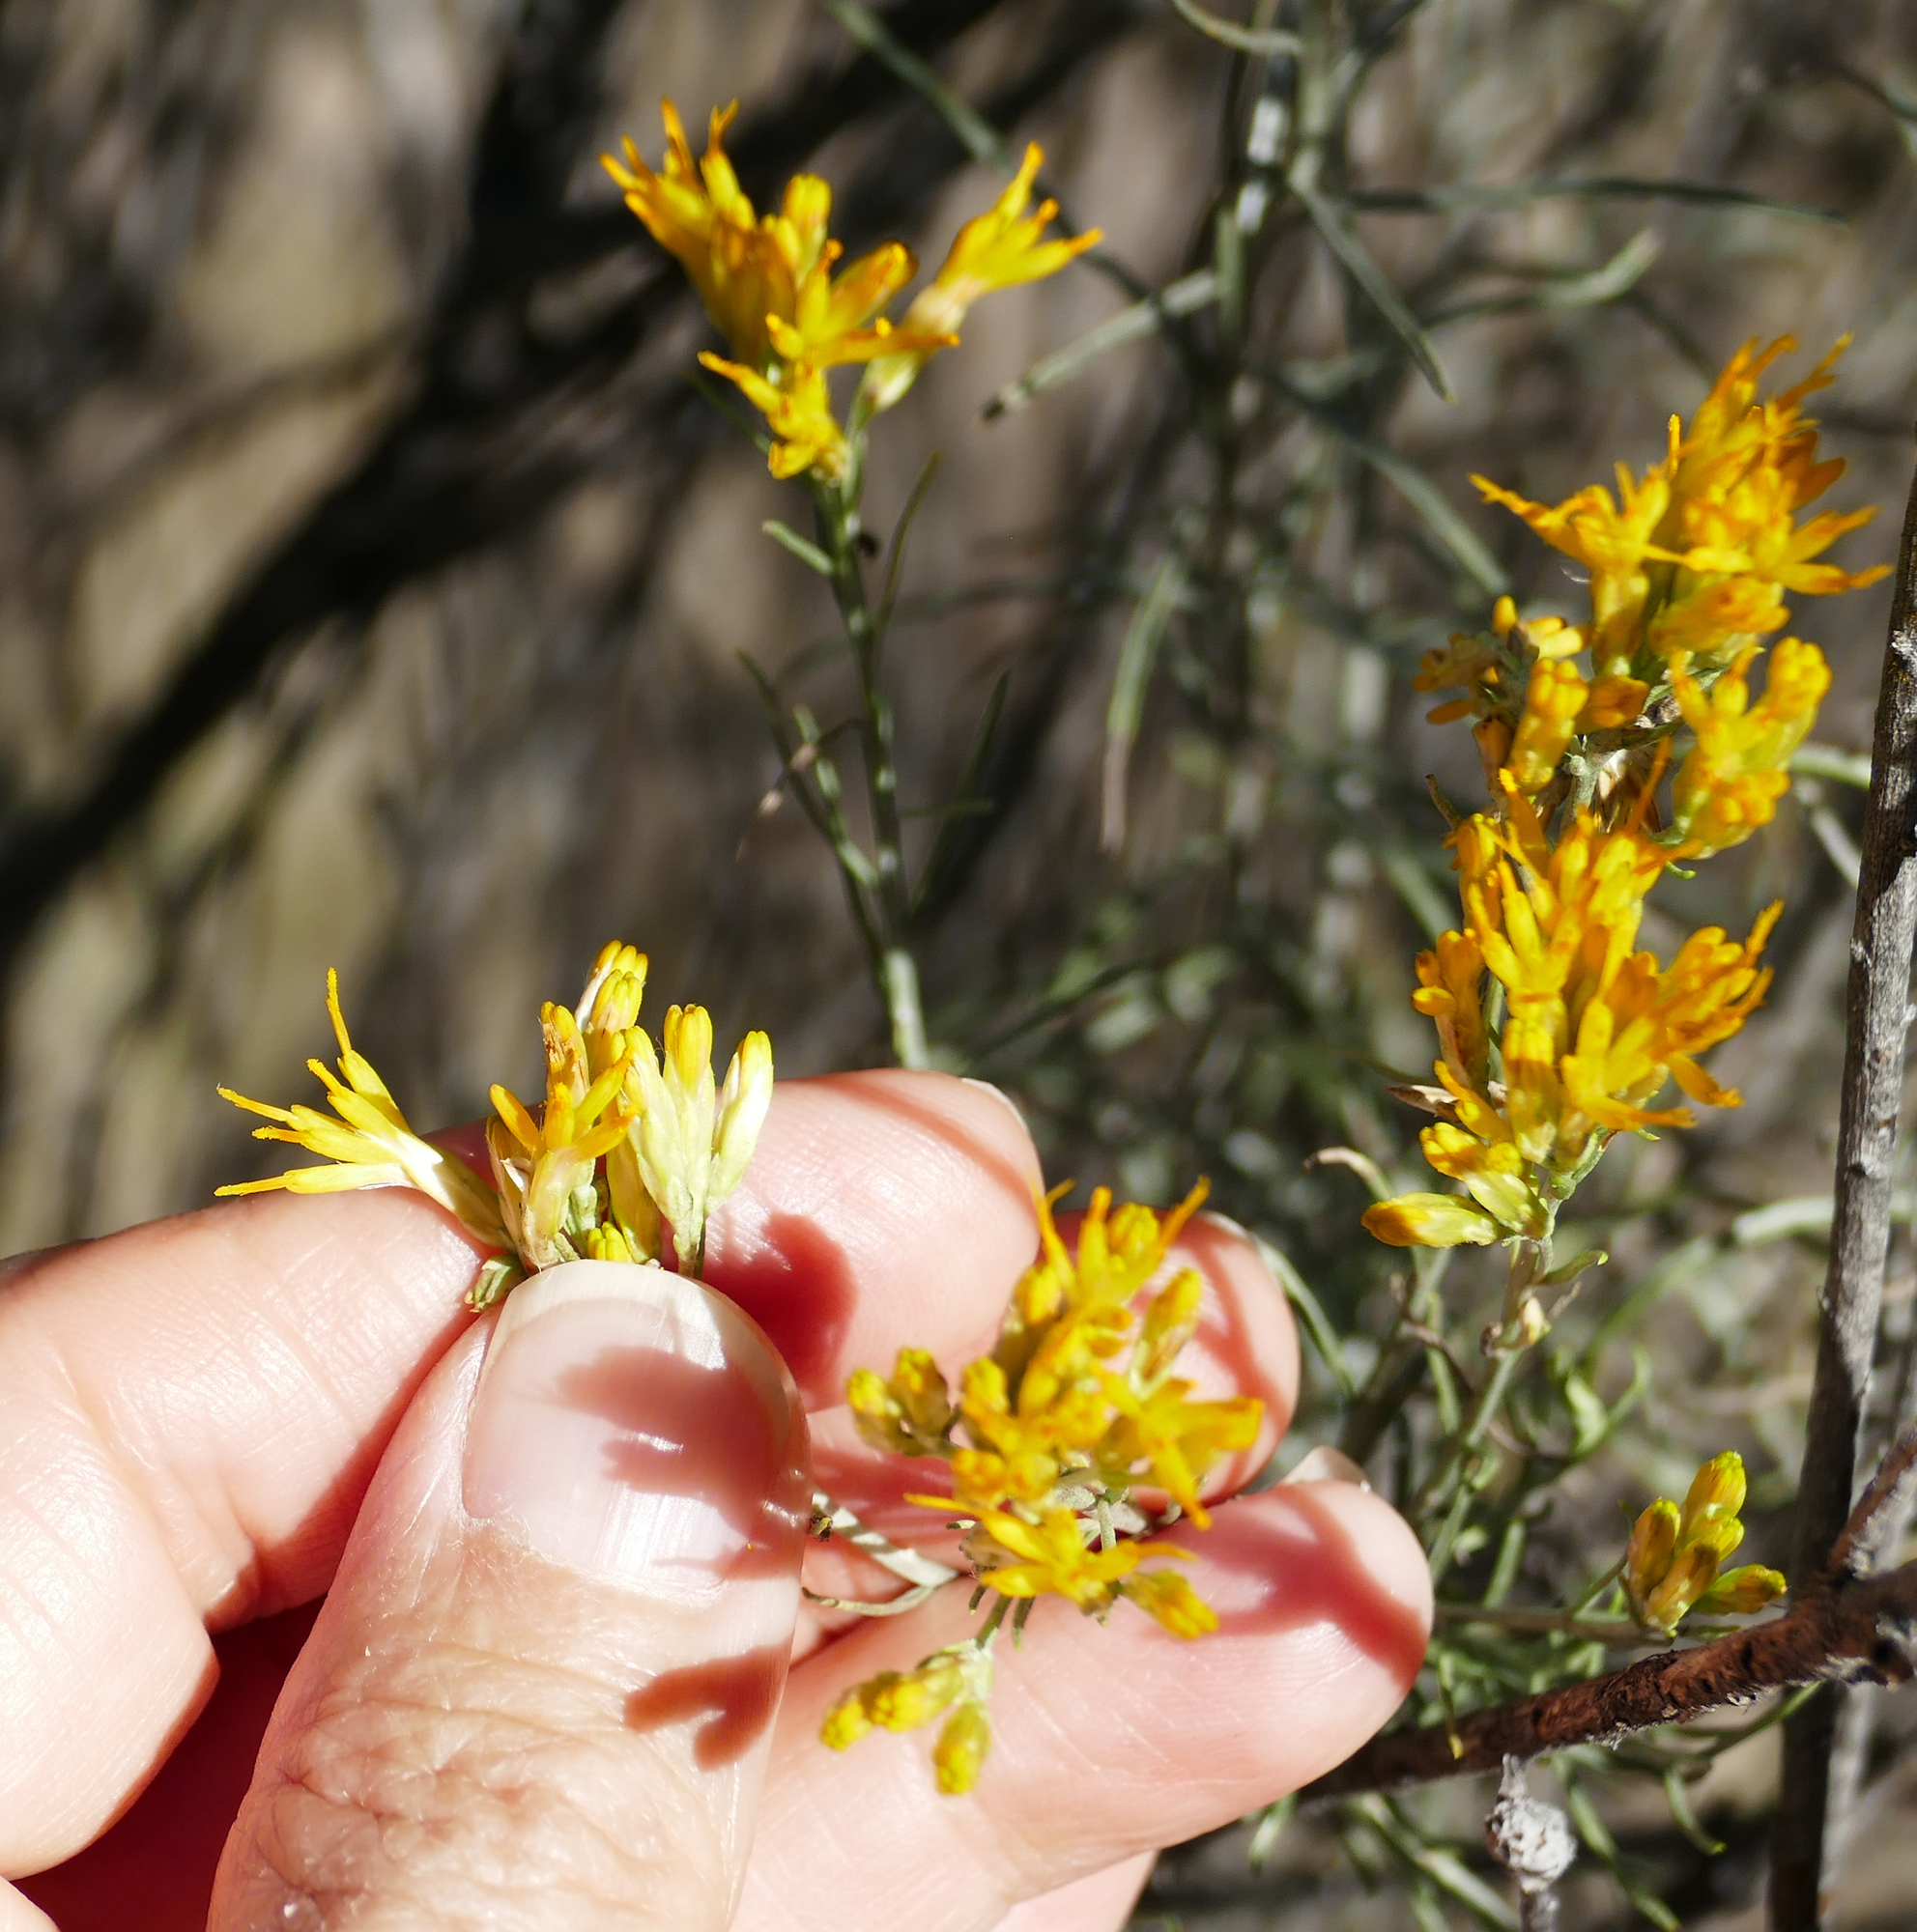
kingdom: Plantae
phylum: Tracheophyta
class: Magnoliopsida
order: Asterales
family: Asteraceae
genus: Ericameria
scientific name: Ericameria nauseosa
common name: Rubber rabbitbrush
